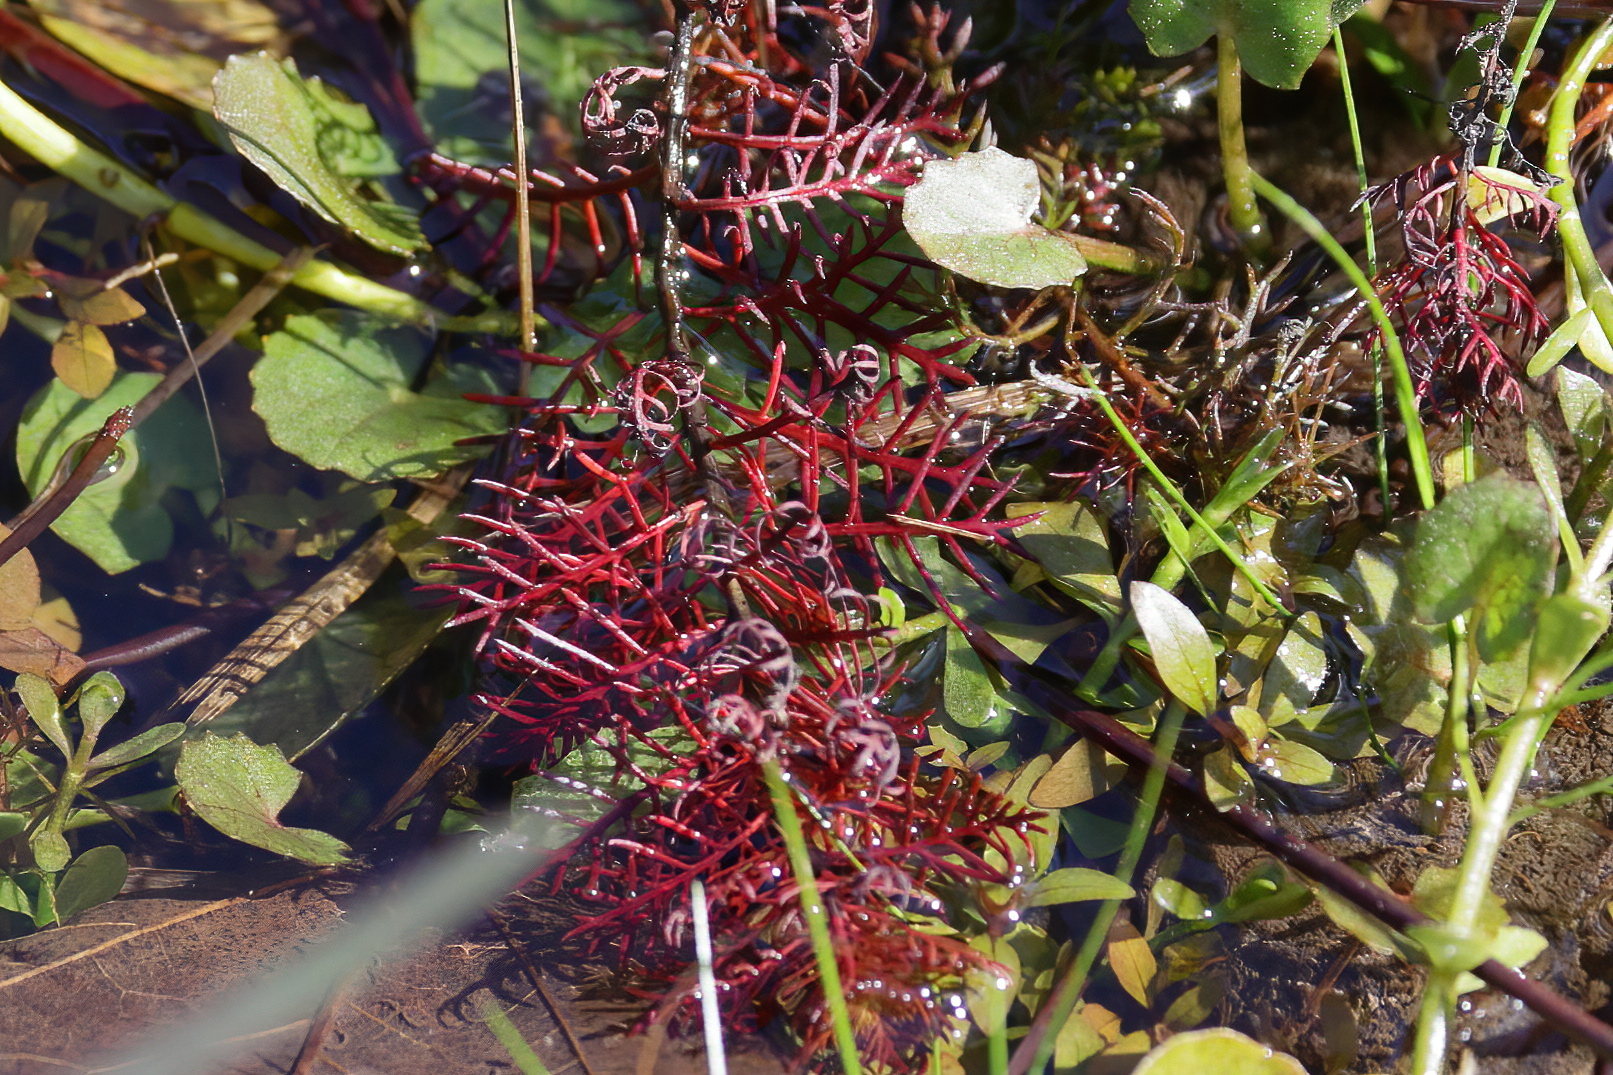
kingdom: Plantae
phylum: Tracheophyta
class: Magnoliopsida
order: Saxifragales
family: Haloragaceae
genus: Proserpinaca
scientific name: Proserpinaca pectinata
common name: Comb-leaved mermaidweed
